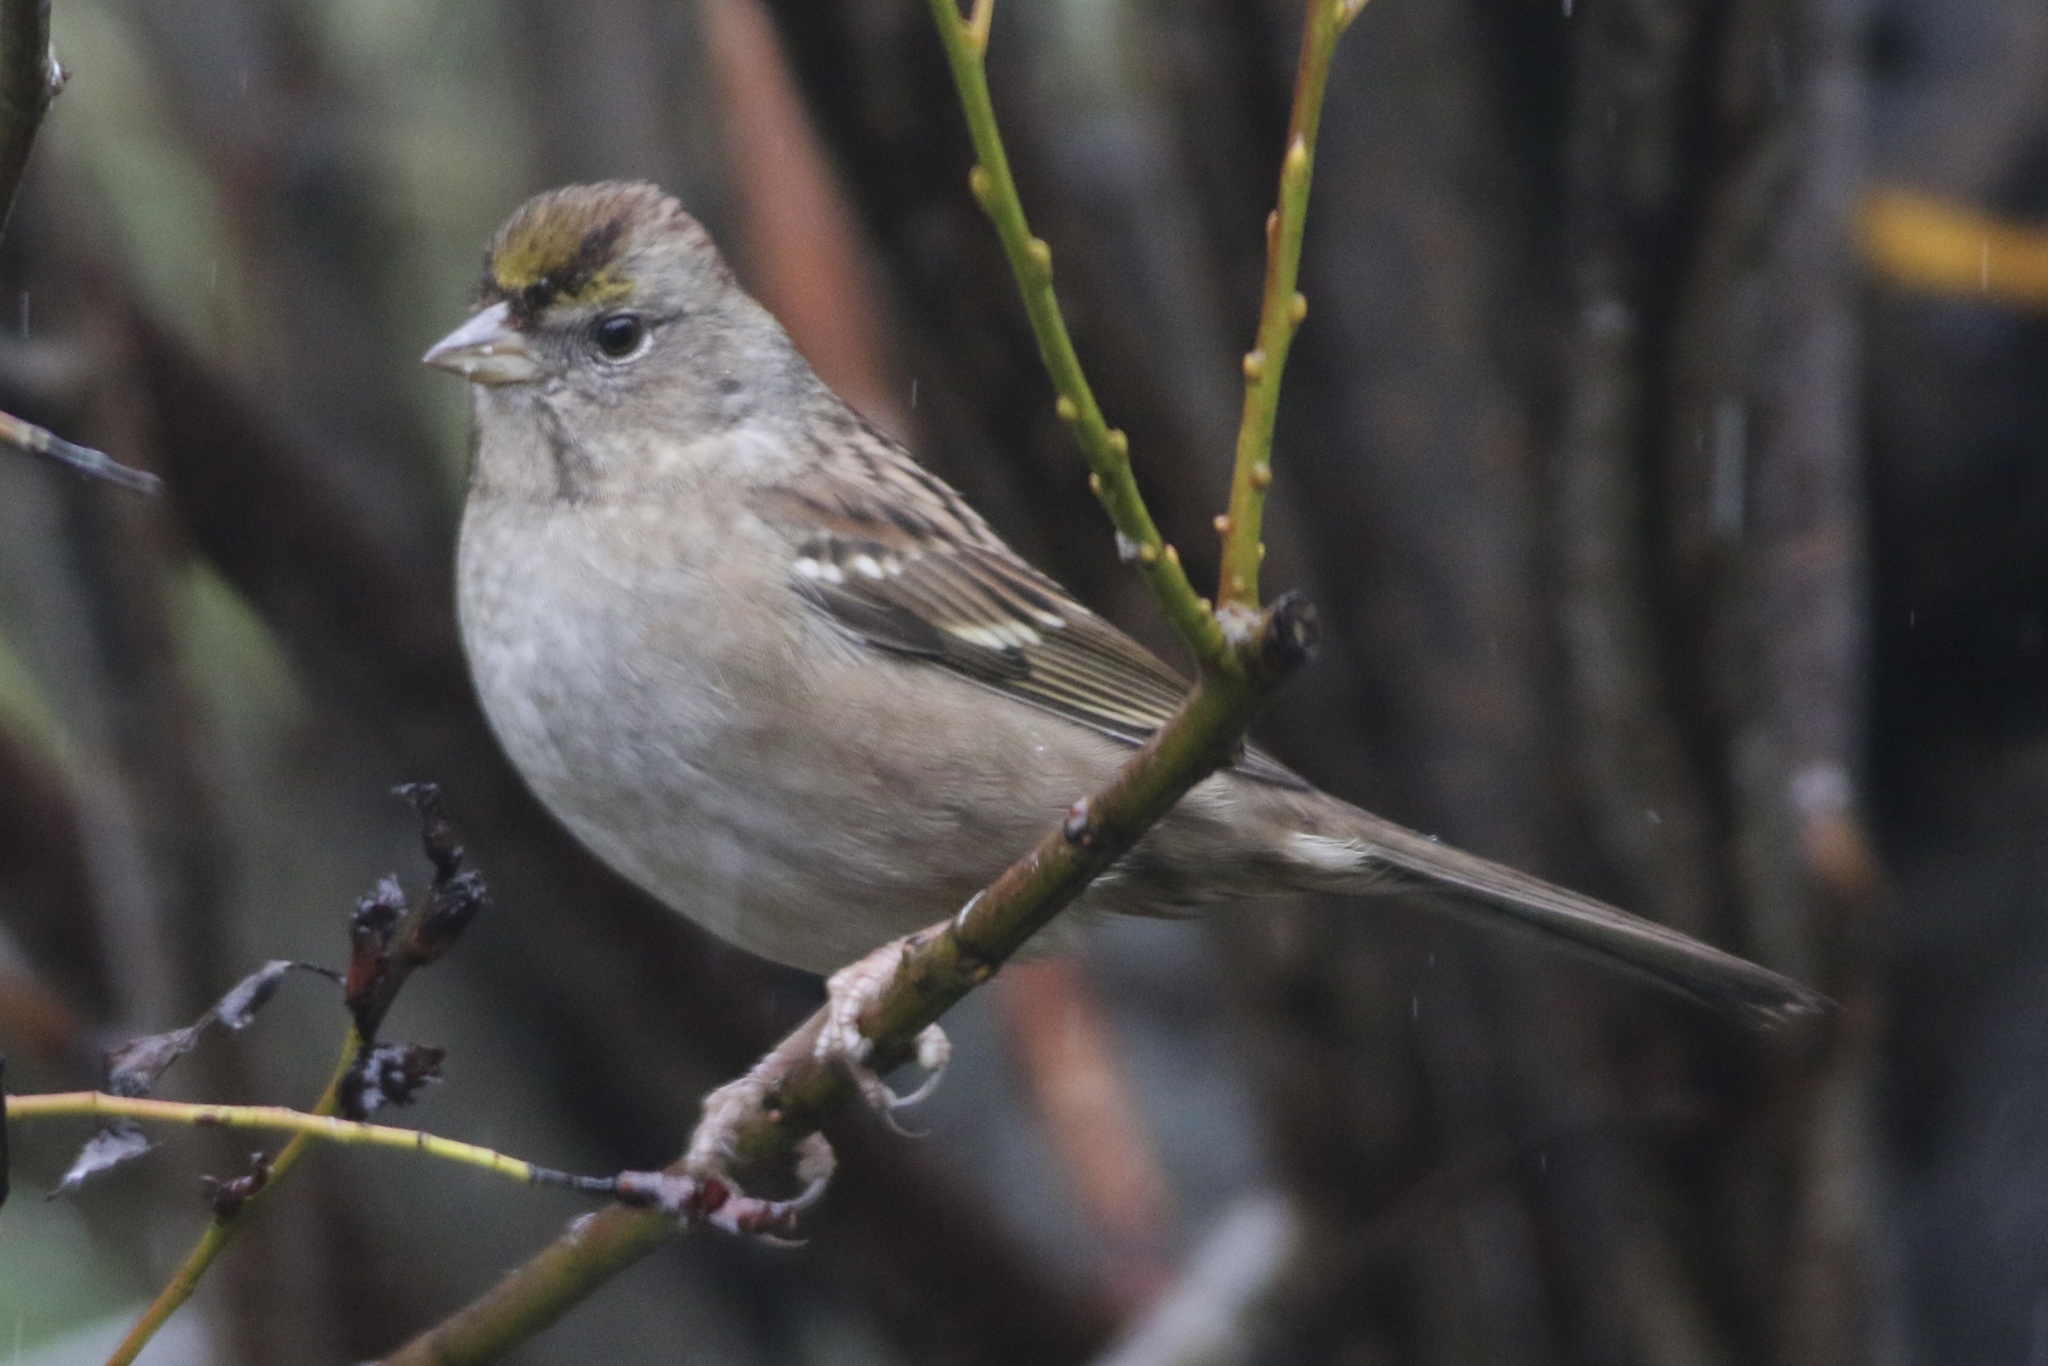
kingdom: Animalia
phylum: Chordata
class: Aves
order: Passeriformes
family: Passerellidae
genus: Zonotrichia
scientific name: Zonotrichia atricapilla
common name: Golden-crowned sparrow
